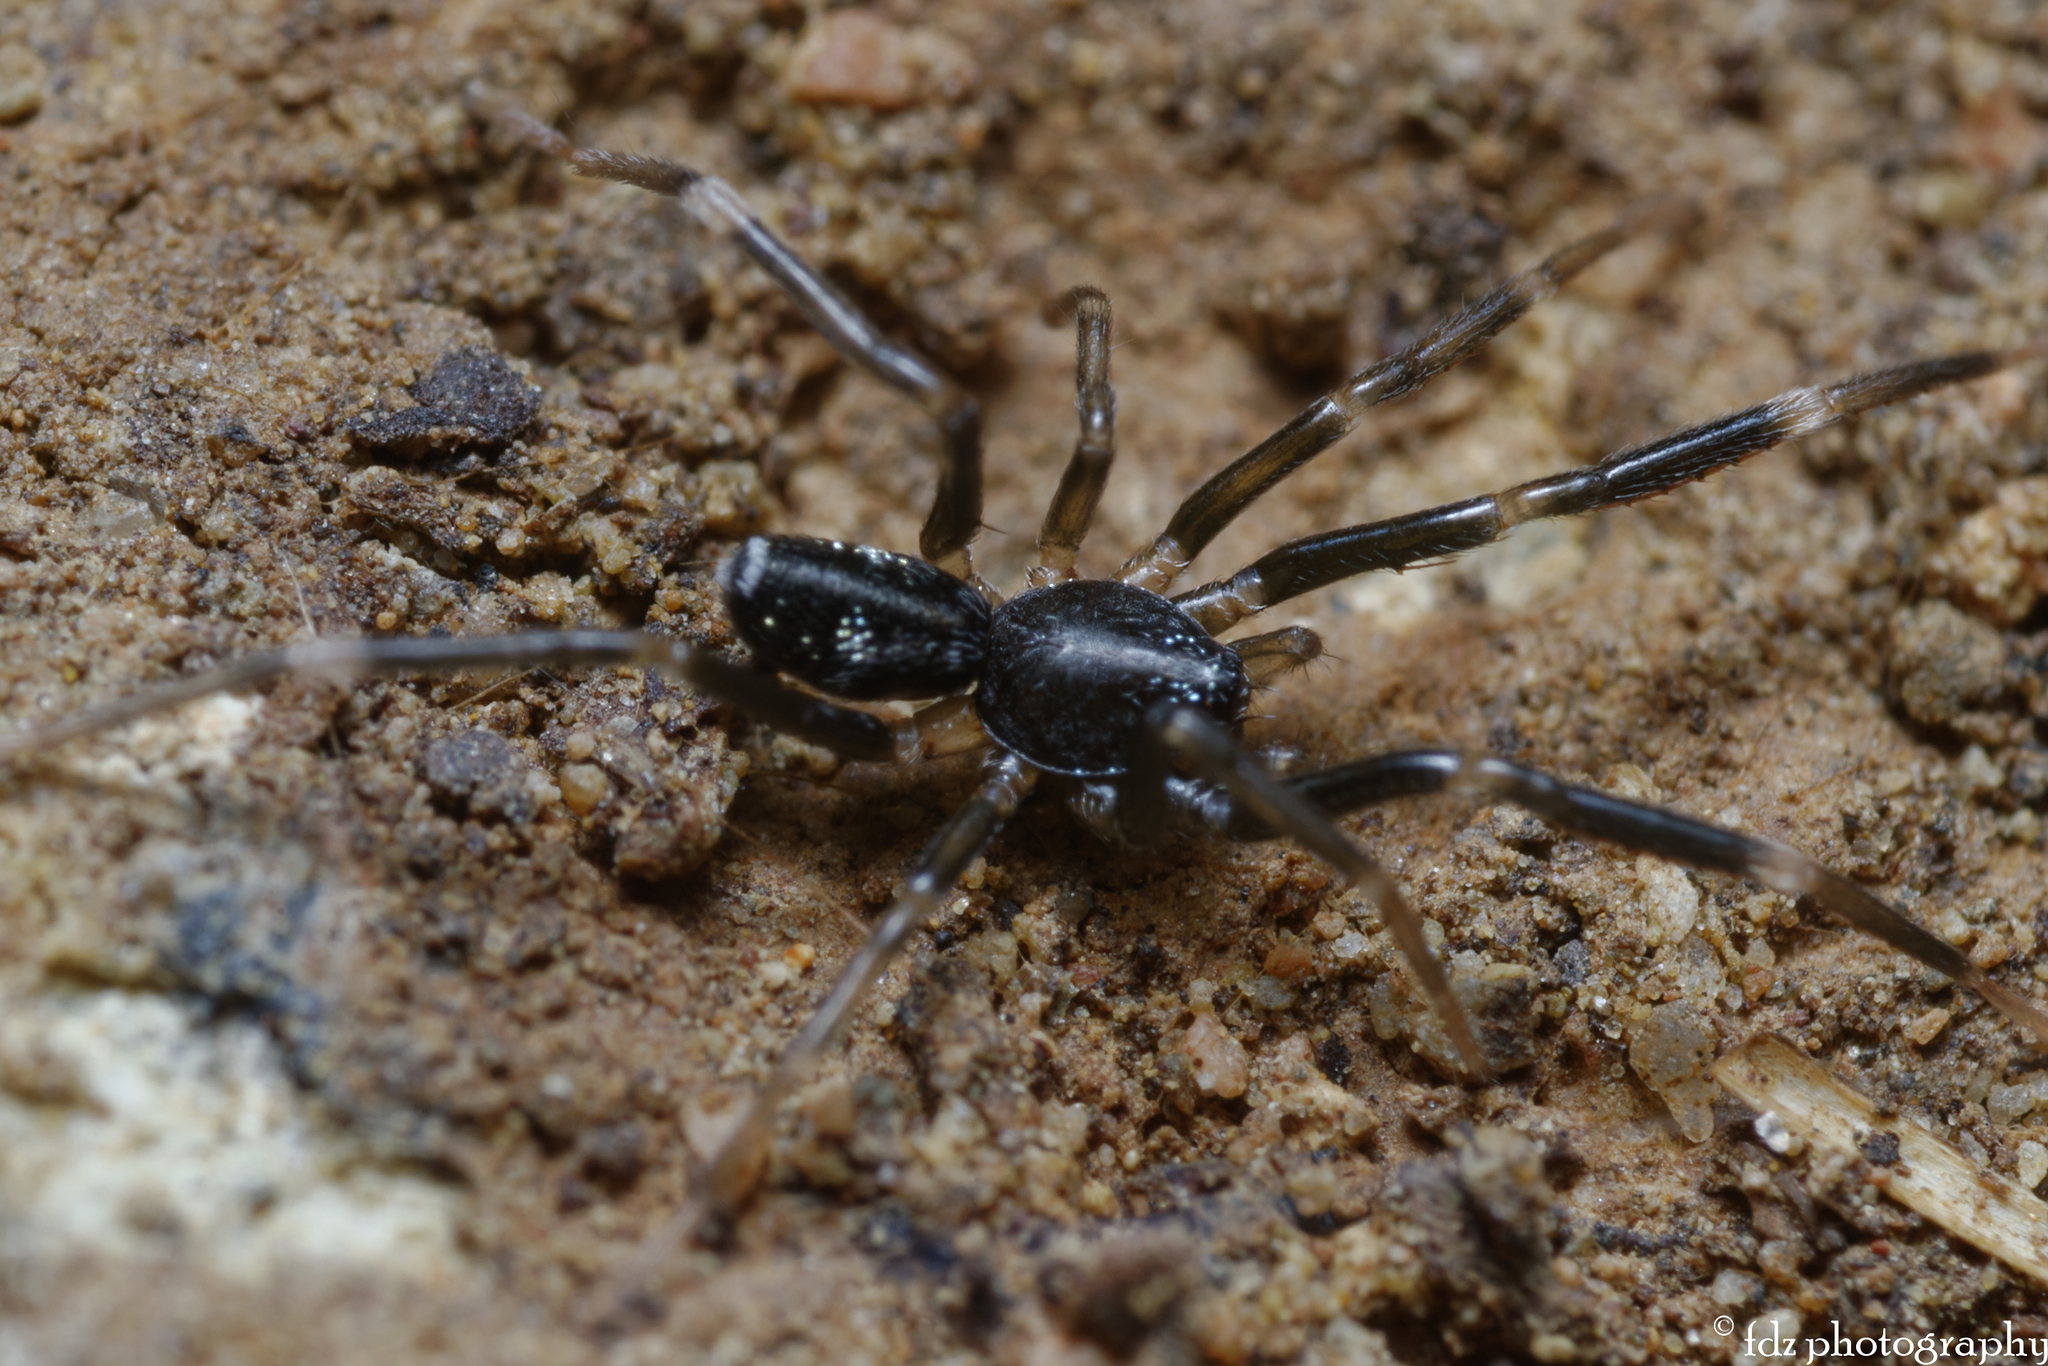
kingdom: Animalia
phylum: Arthropoda
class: Arachnida
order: Araneae
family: Phrurolithidae
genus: Liophrurillus
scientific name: Liophrurillus flavitarsis
